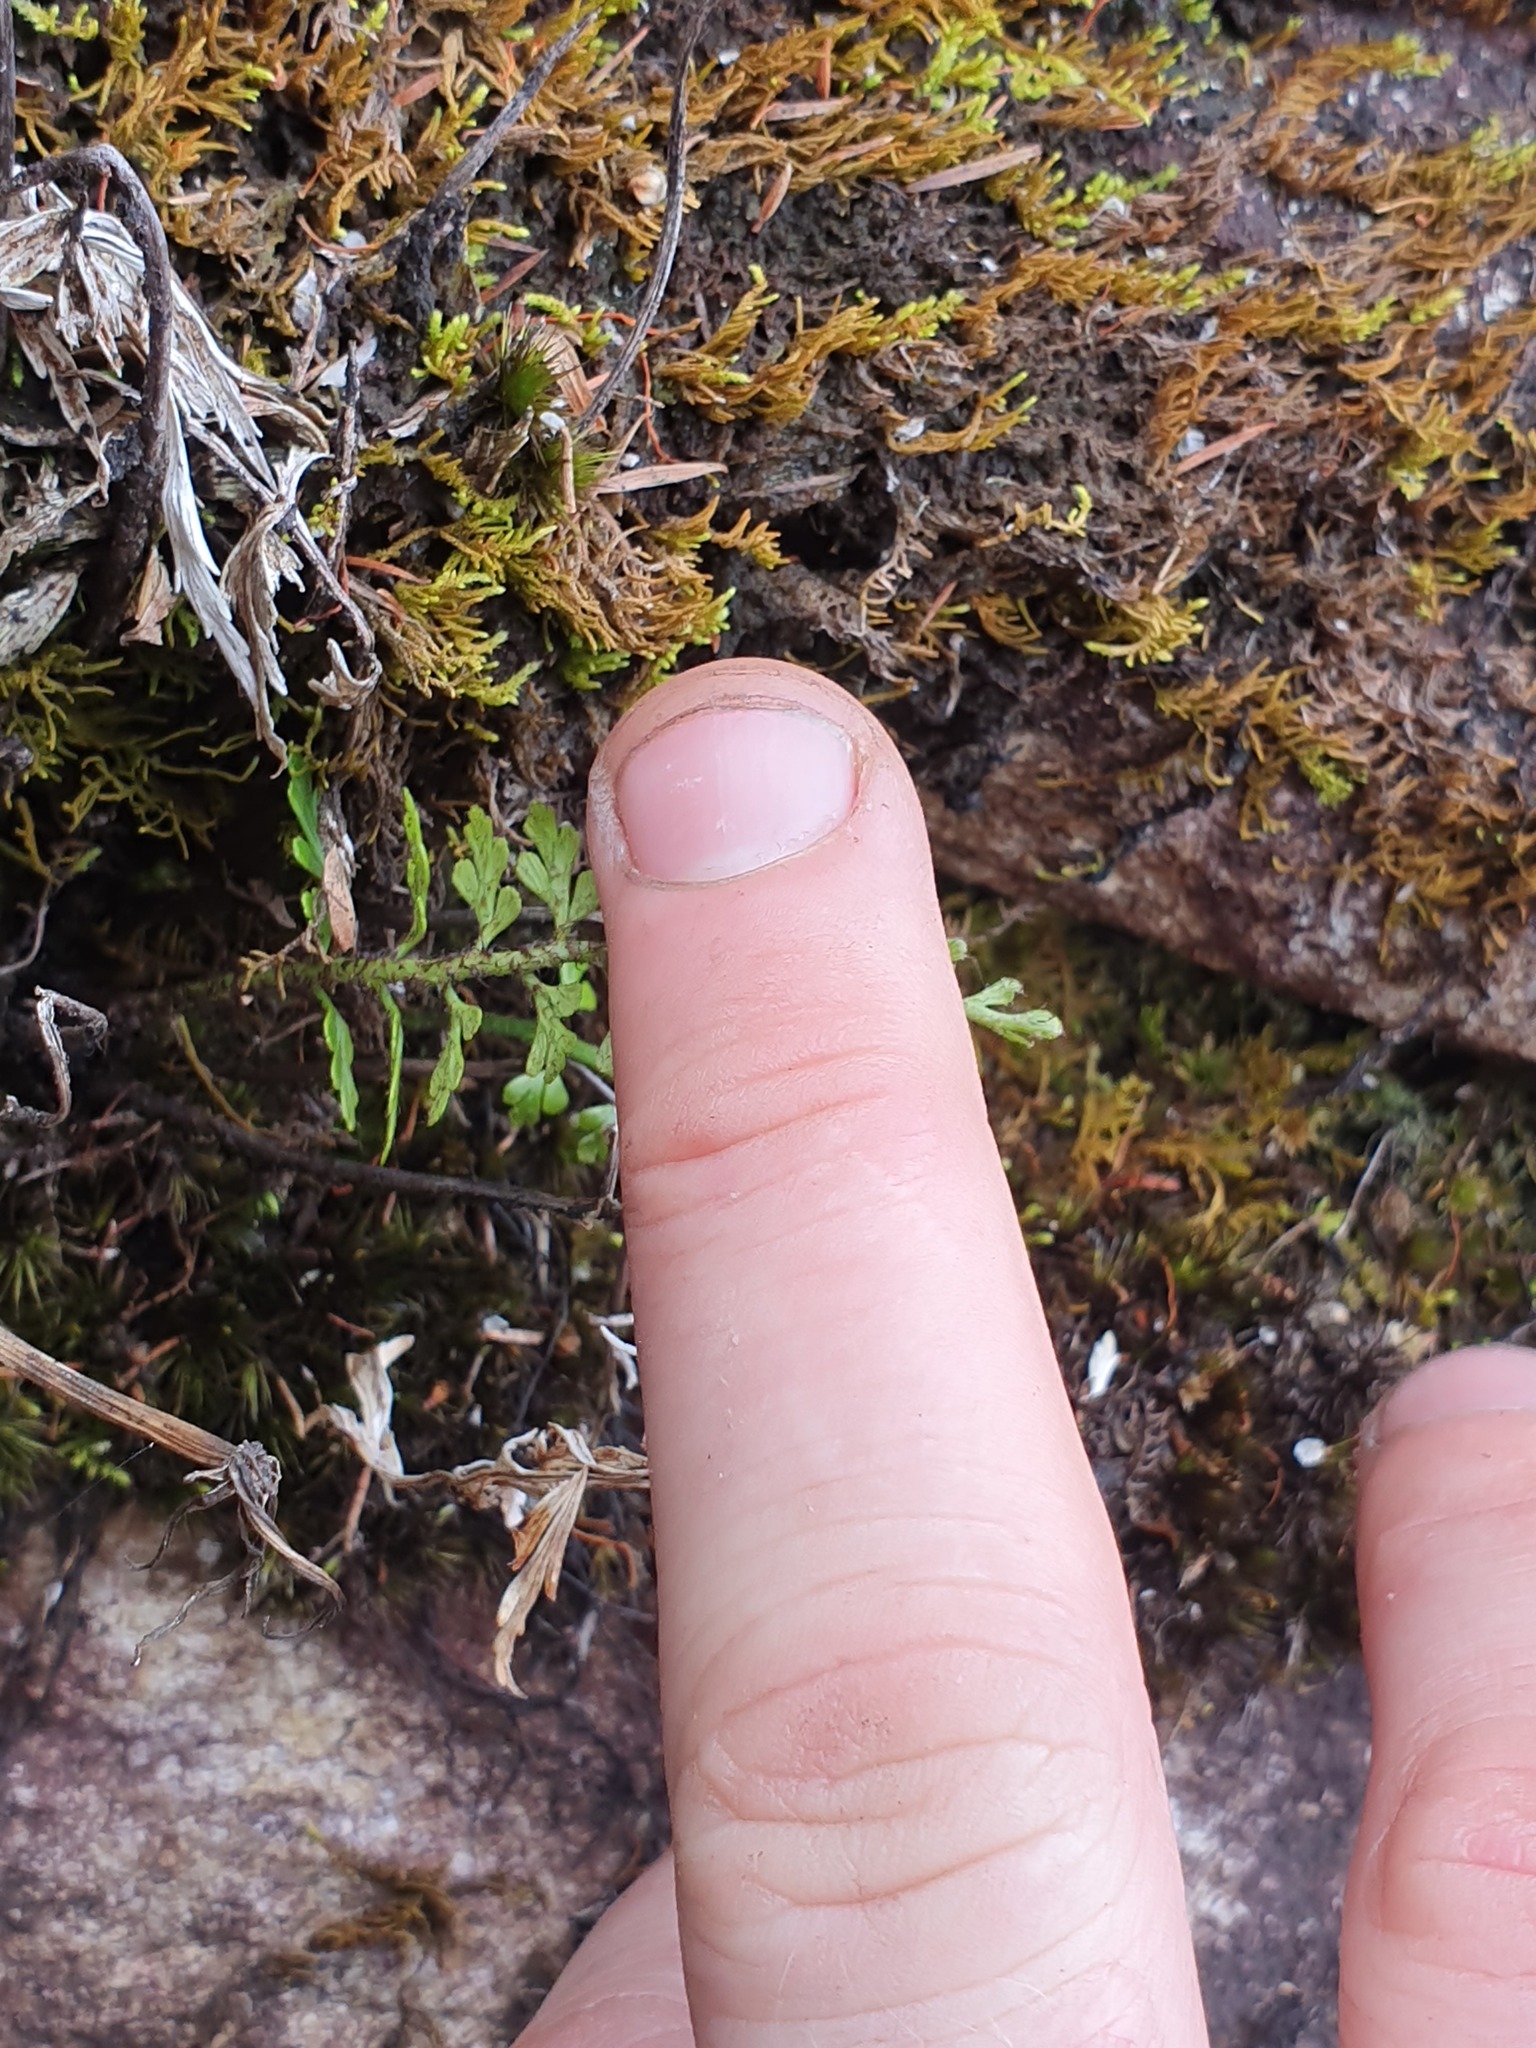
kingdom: Plantae
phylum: Tracheophyta
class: Polypodiopsida
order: Polypodiales
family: Aspleniaceae
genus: Asplenium
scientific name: Asplenium aethiopicum
